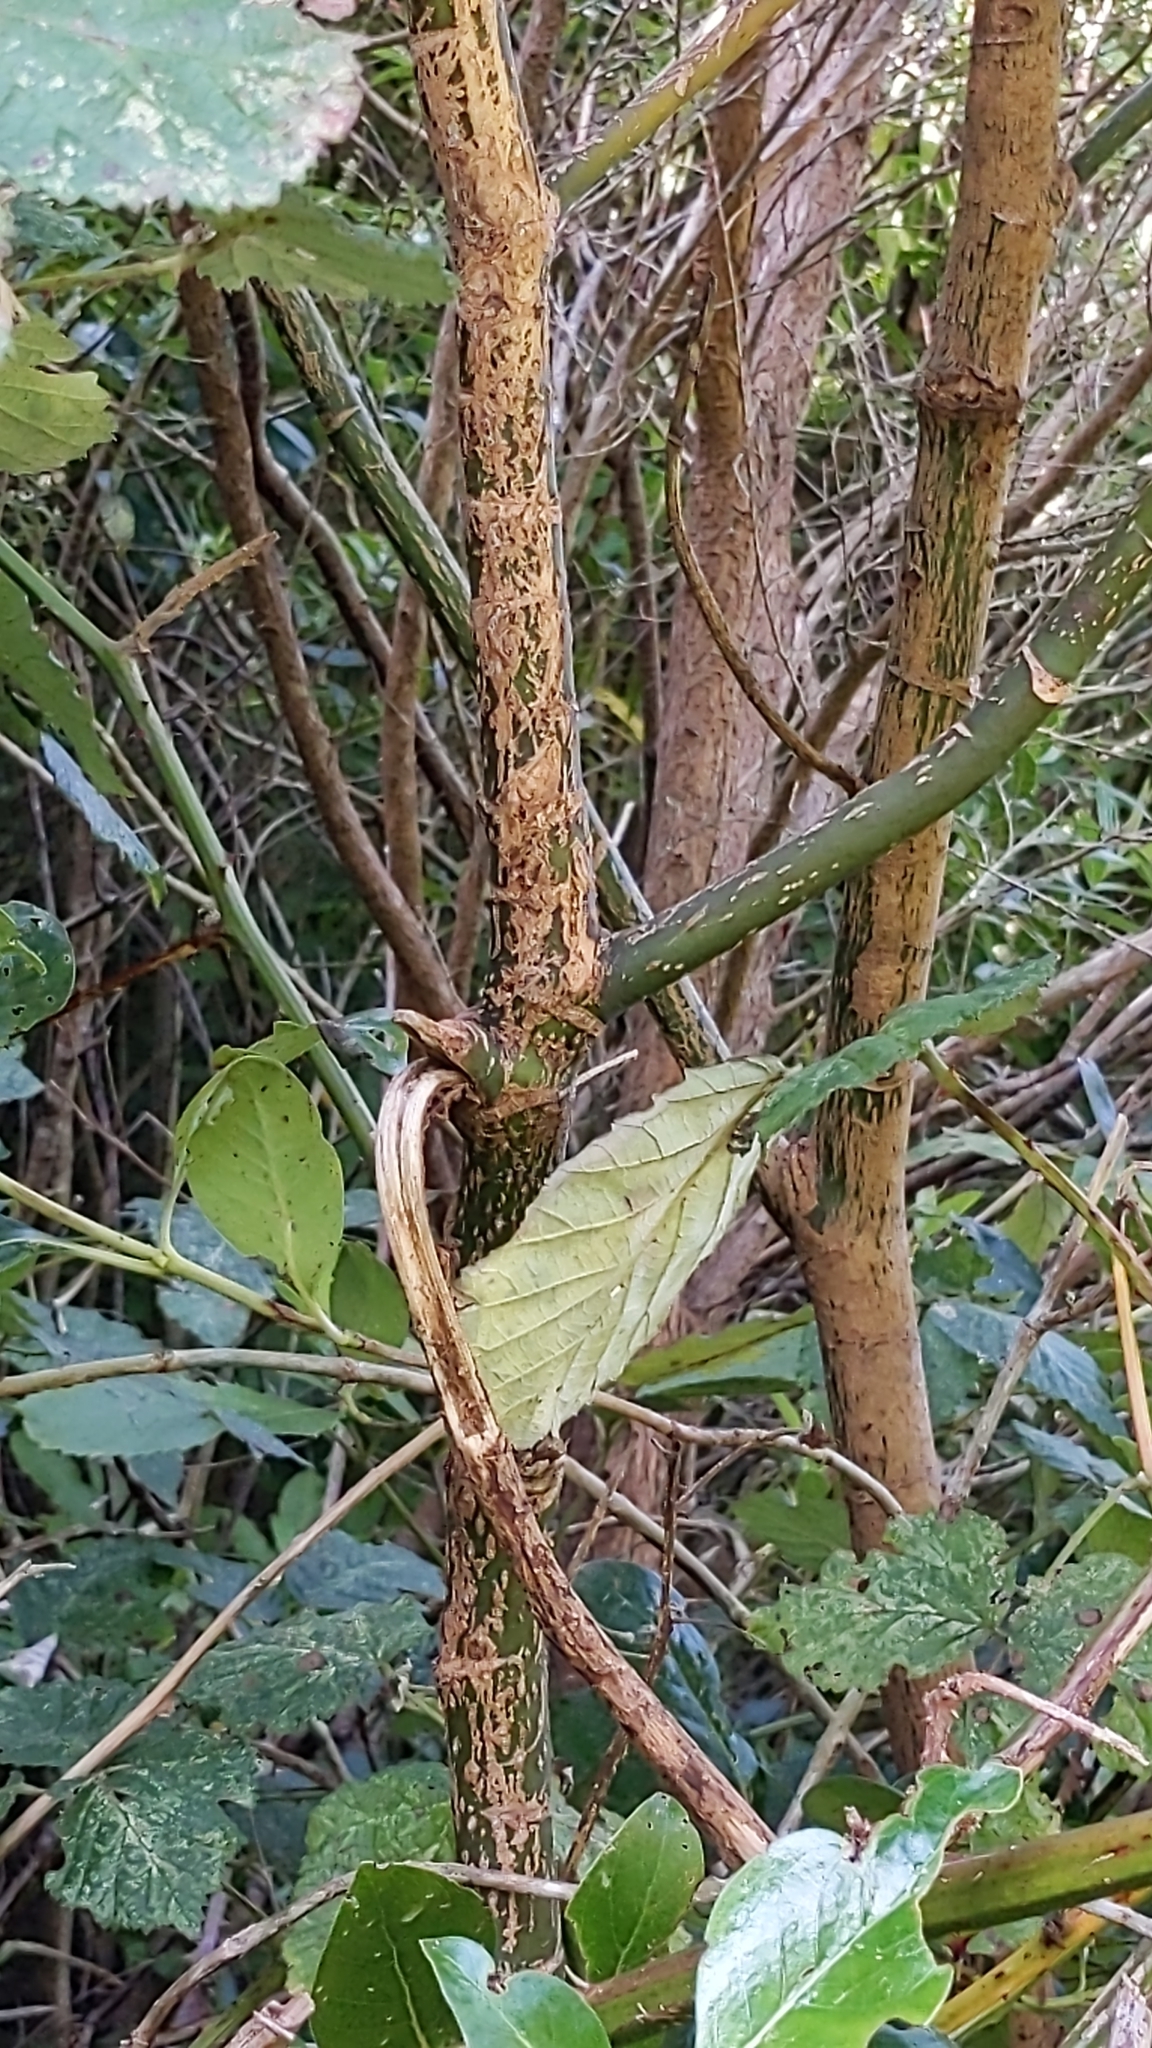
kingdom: Plantae
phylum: Tracheophyta
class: Magnoliopsida
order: Apiales
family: Araliaceae
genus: Neopanax
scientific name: Neopanax arboreus
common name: Five-fingers
